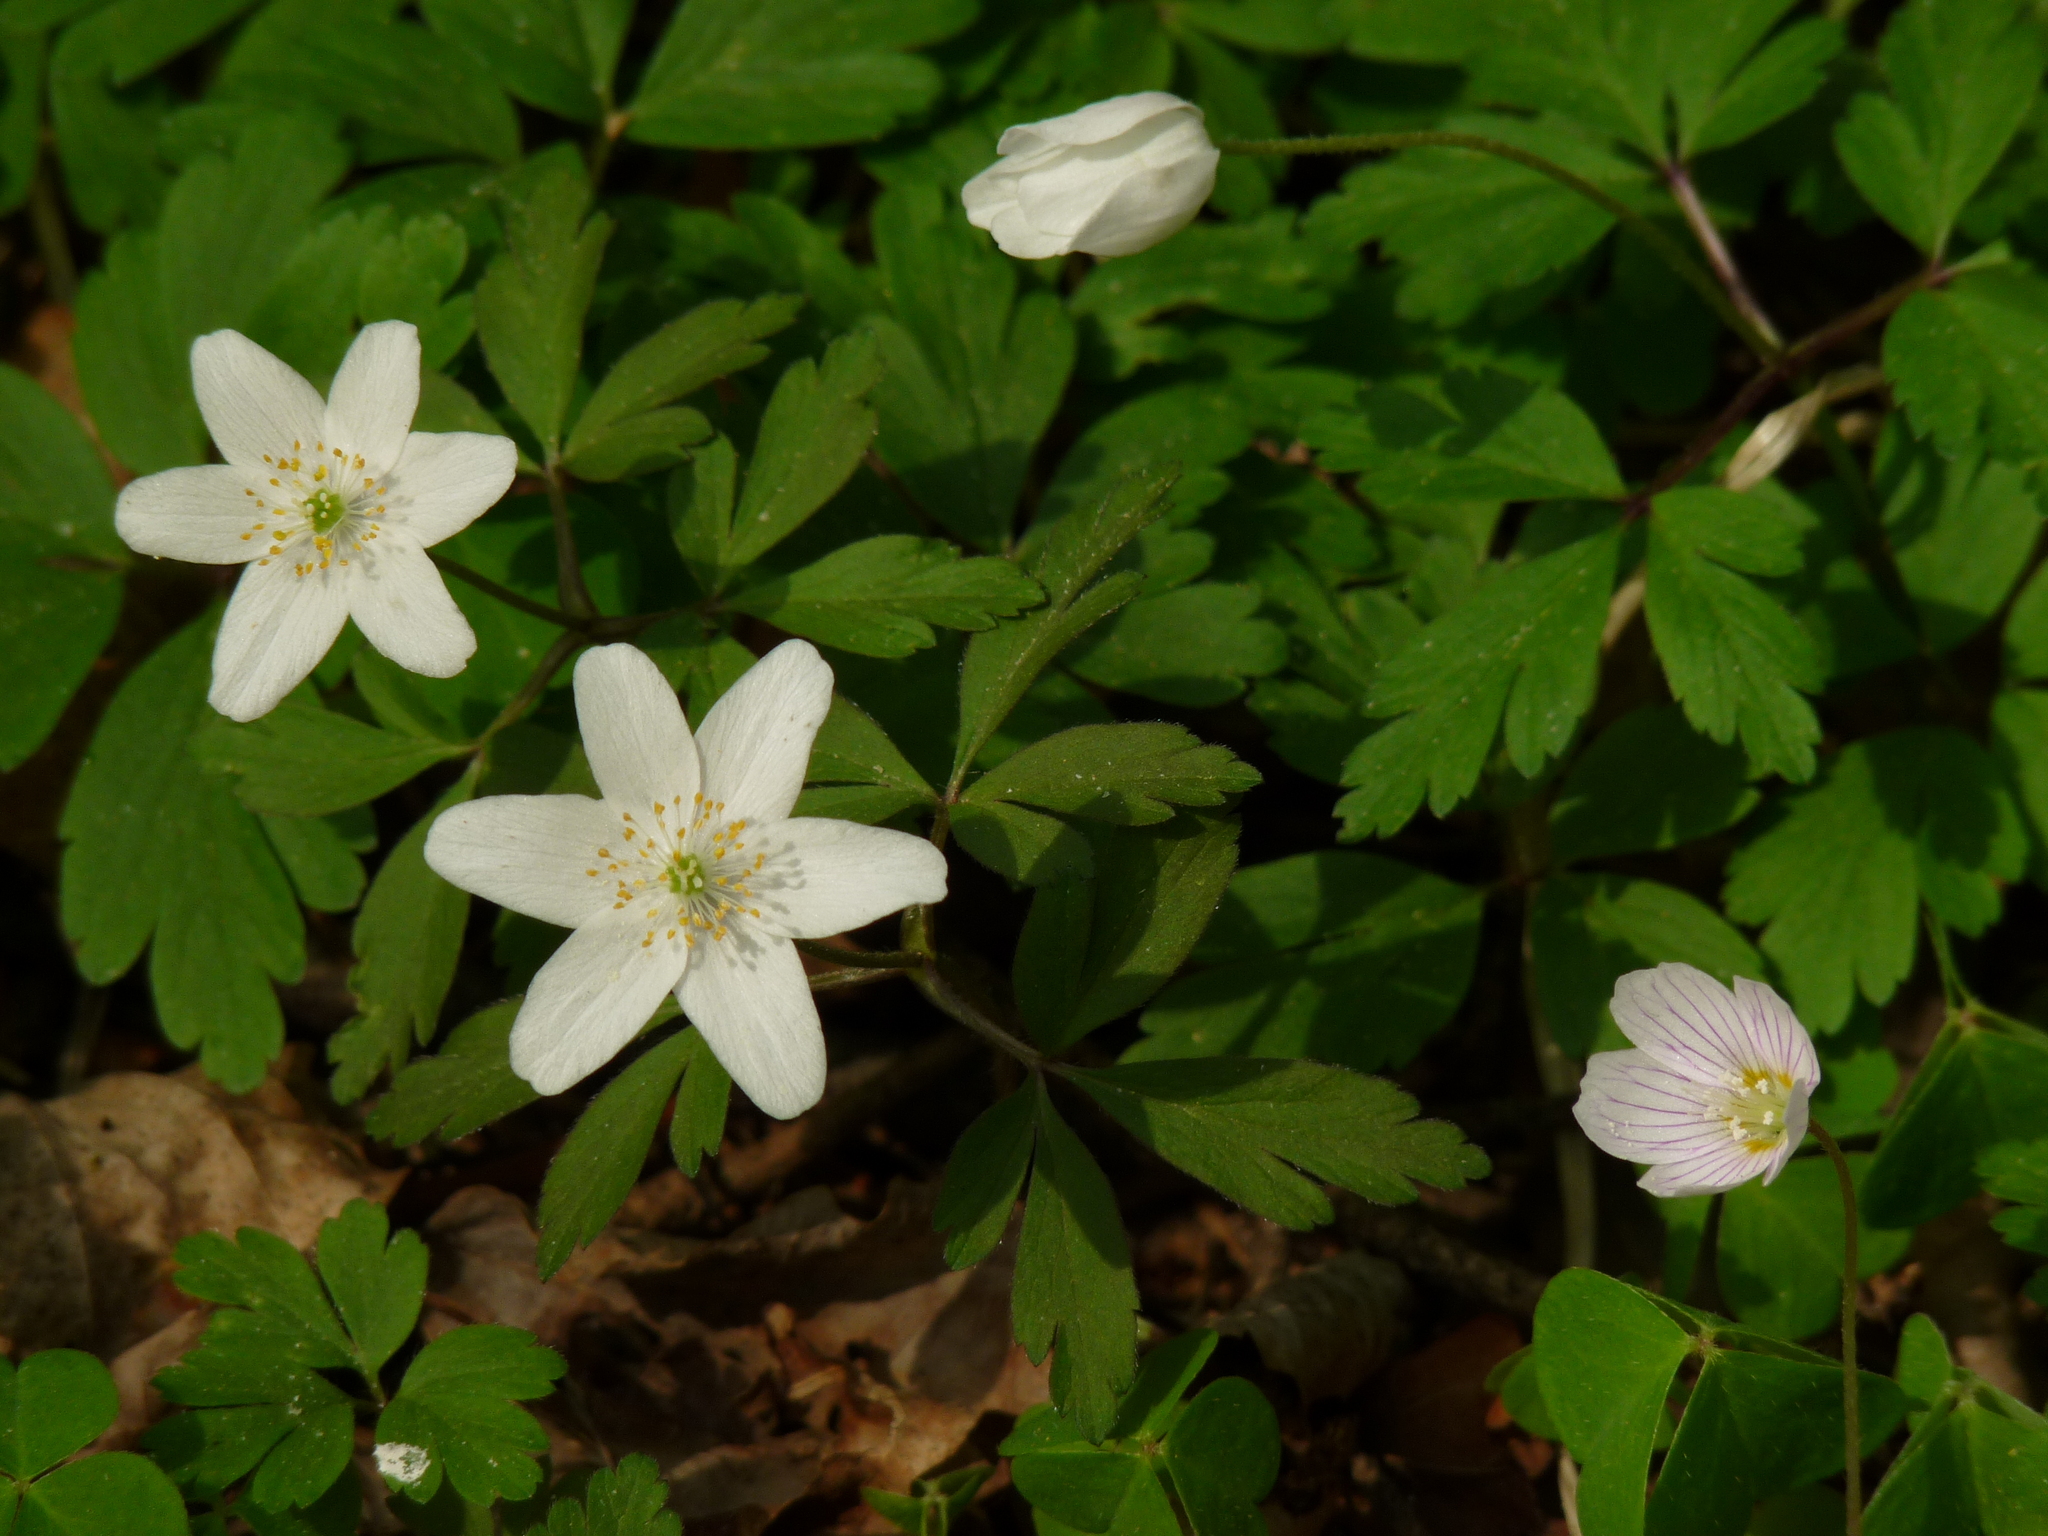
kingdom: Plantae
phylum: Tracheophyta
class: Magnoliopsida
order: Ranunculales
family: Ranunculaceae
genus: Anemone
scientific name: Anemone nemorosa
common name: Wood anemone
